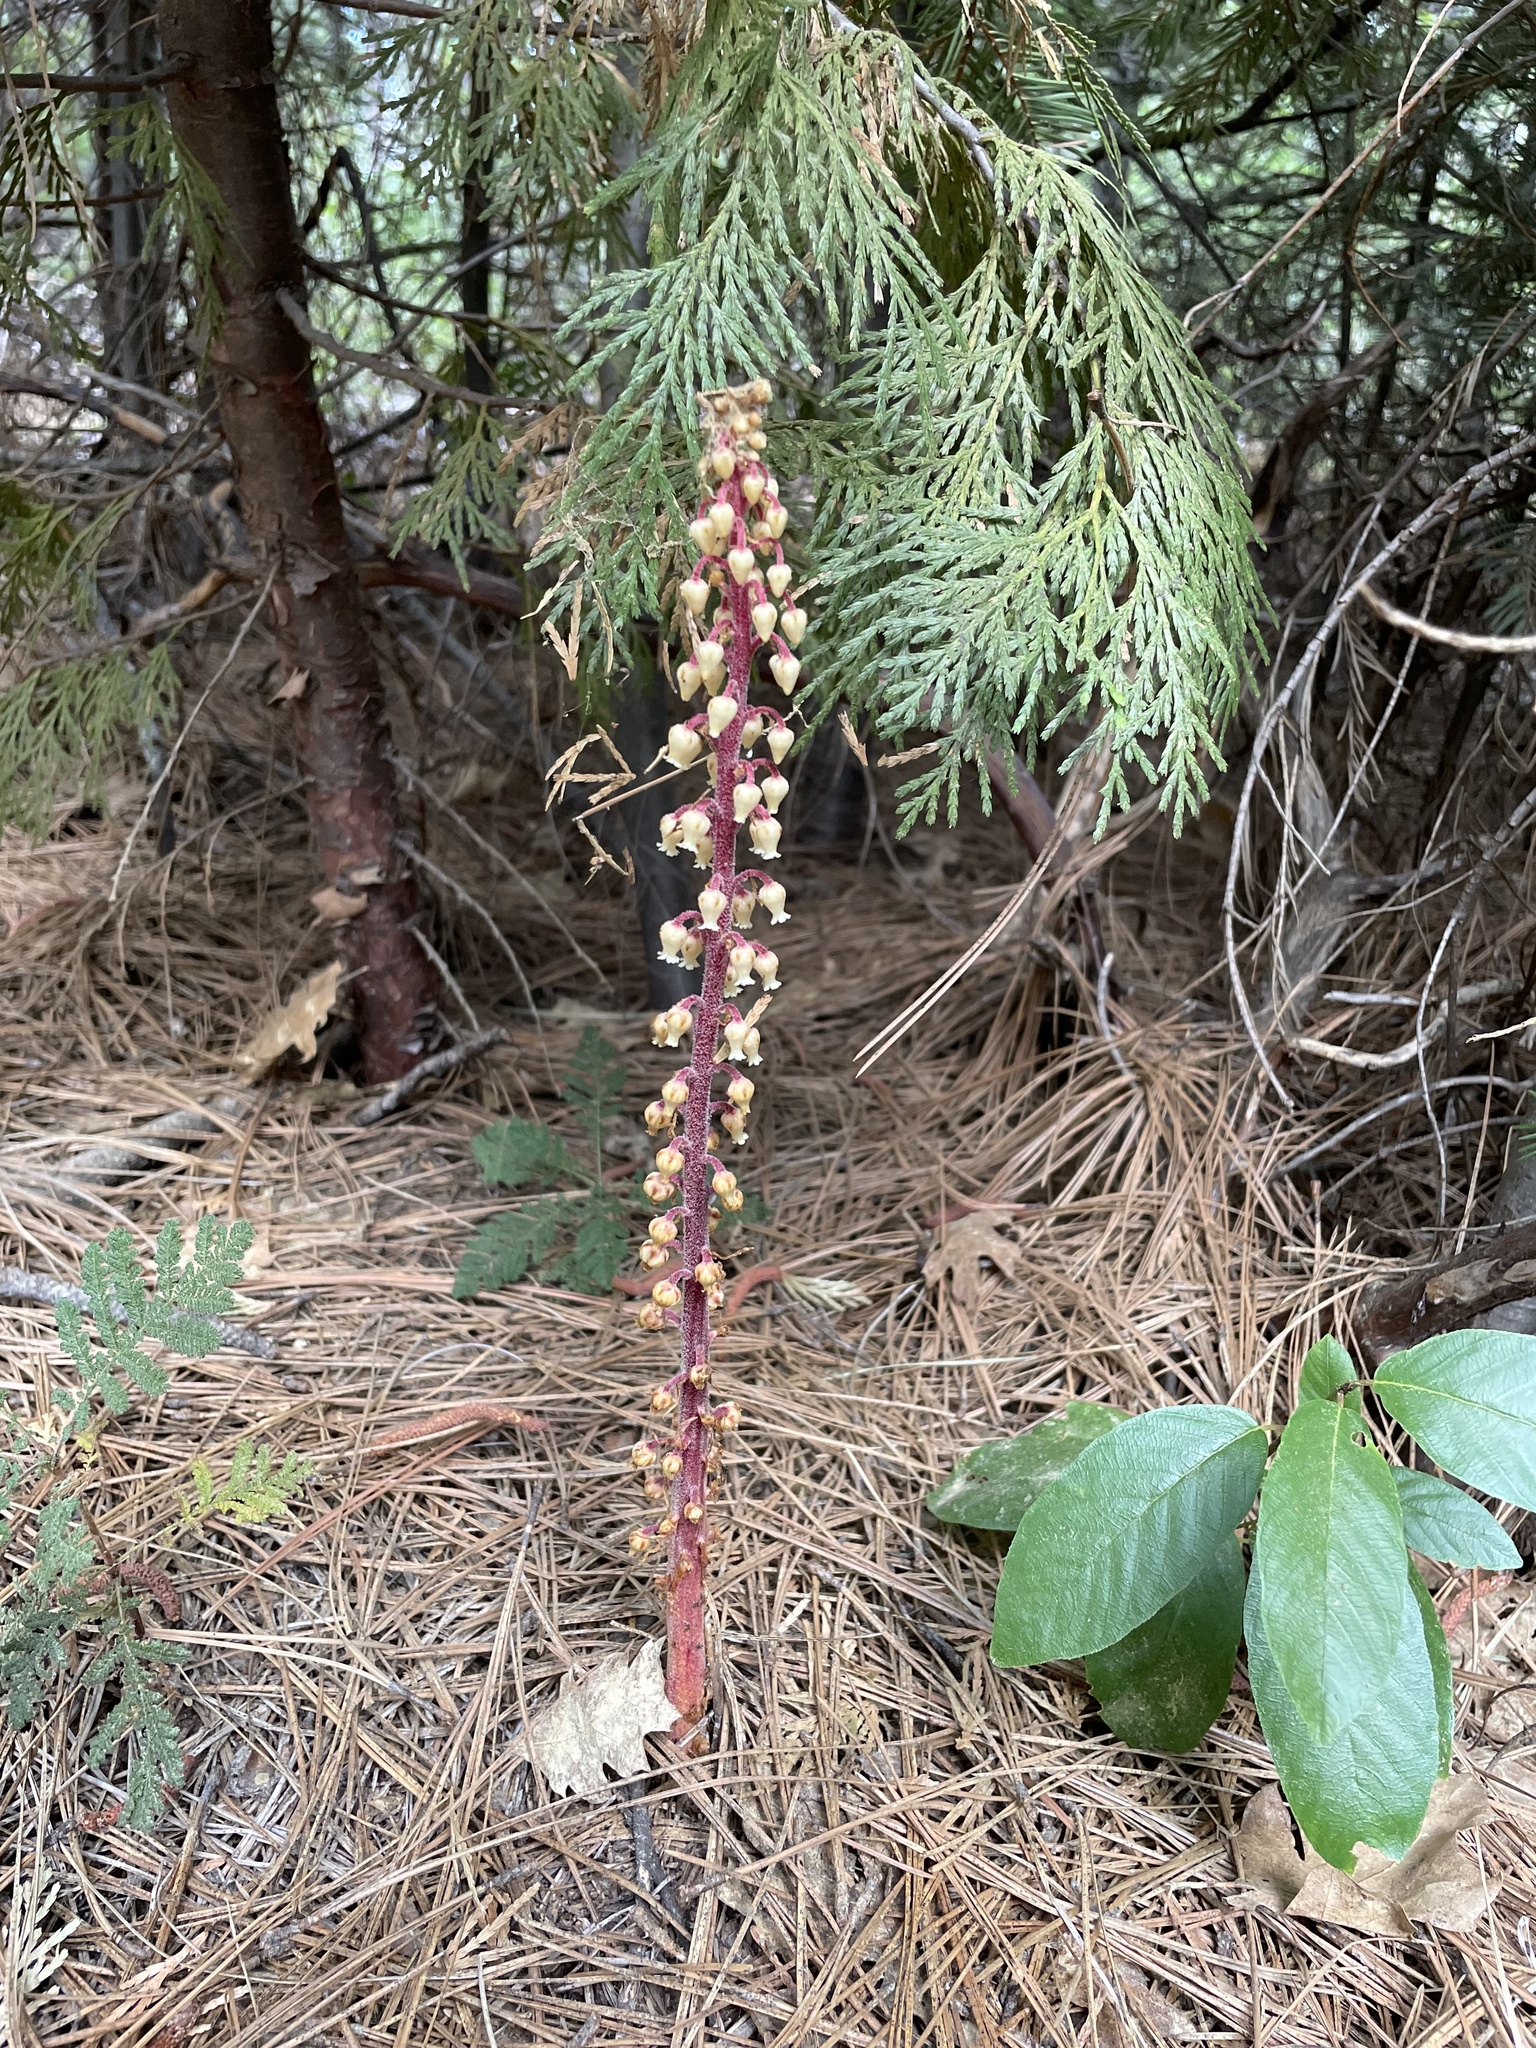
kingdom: Plantae
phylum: Tracheophyta
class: Magnoliopsida
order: Ericales
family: Ericaceae
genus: Pterospora
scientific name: Pterospora andromedea
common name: Giant bird's-nest
